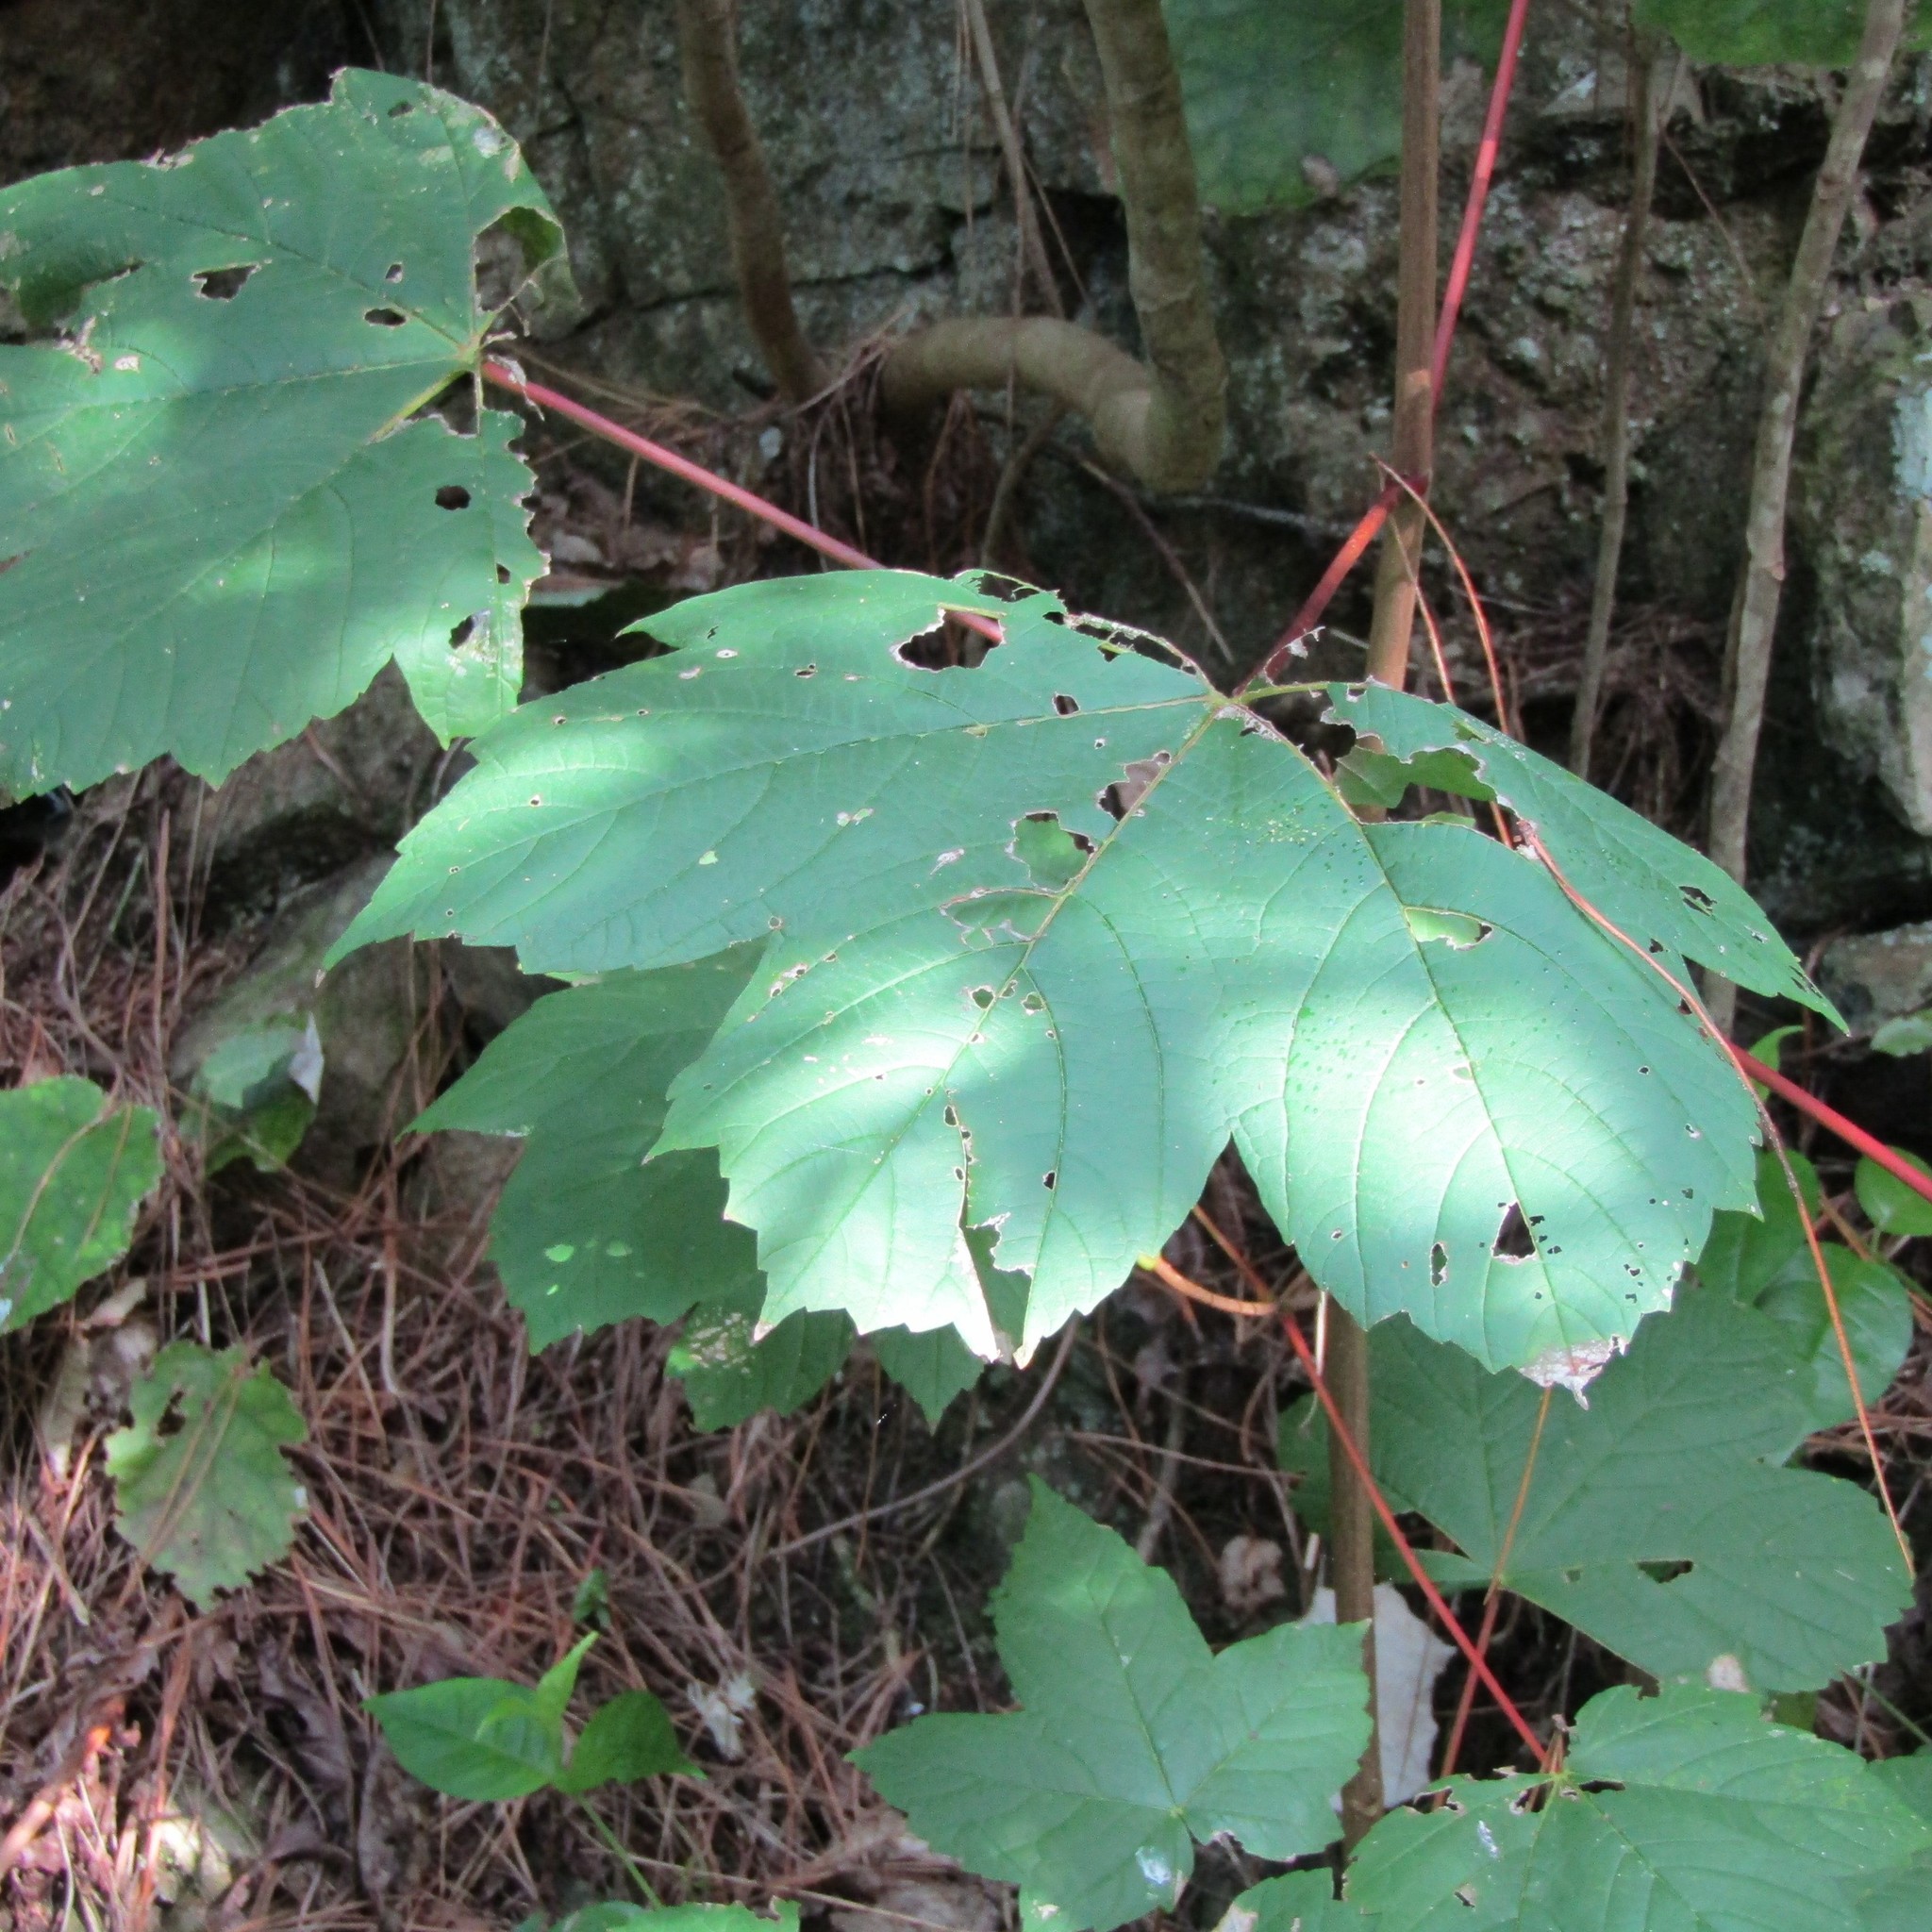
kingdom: Plantae
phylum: Tracheophyta
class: Magnoliopsida
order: Sapindales
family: Sapindaceae
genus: Acer
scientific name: Acer pseudoplatanus
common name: Sycamore
